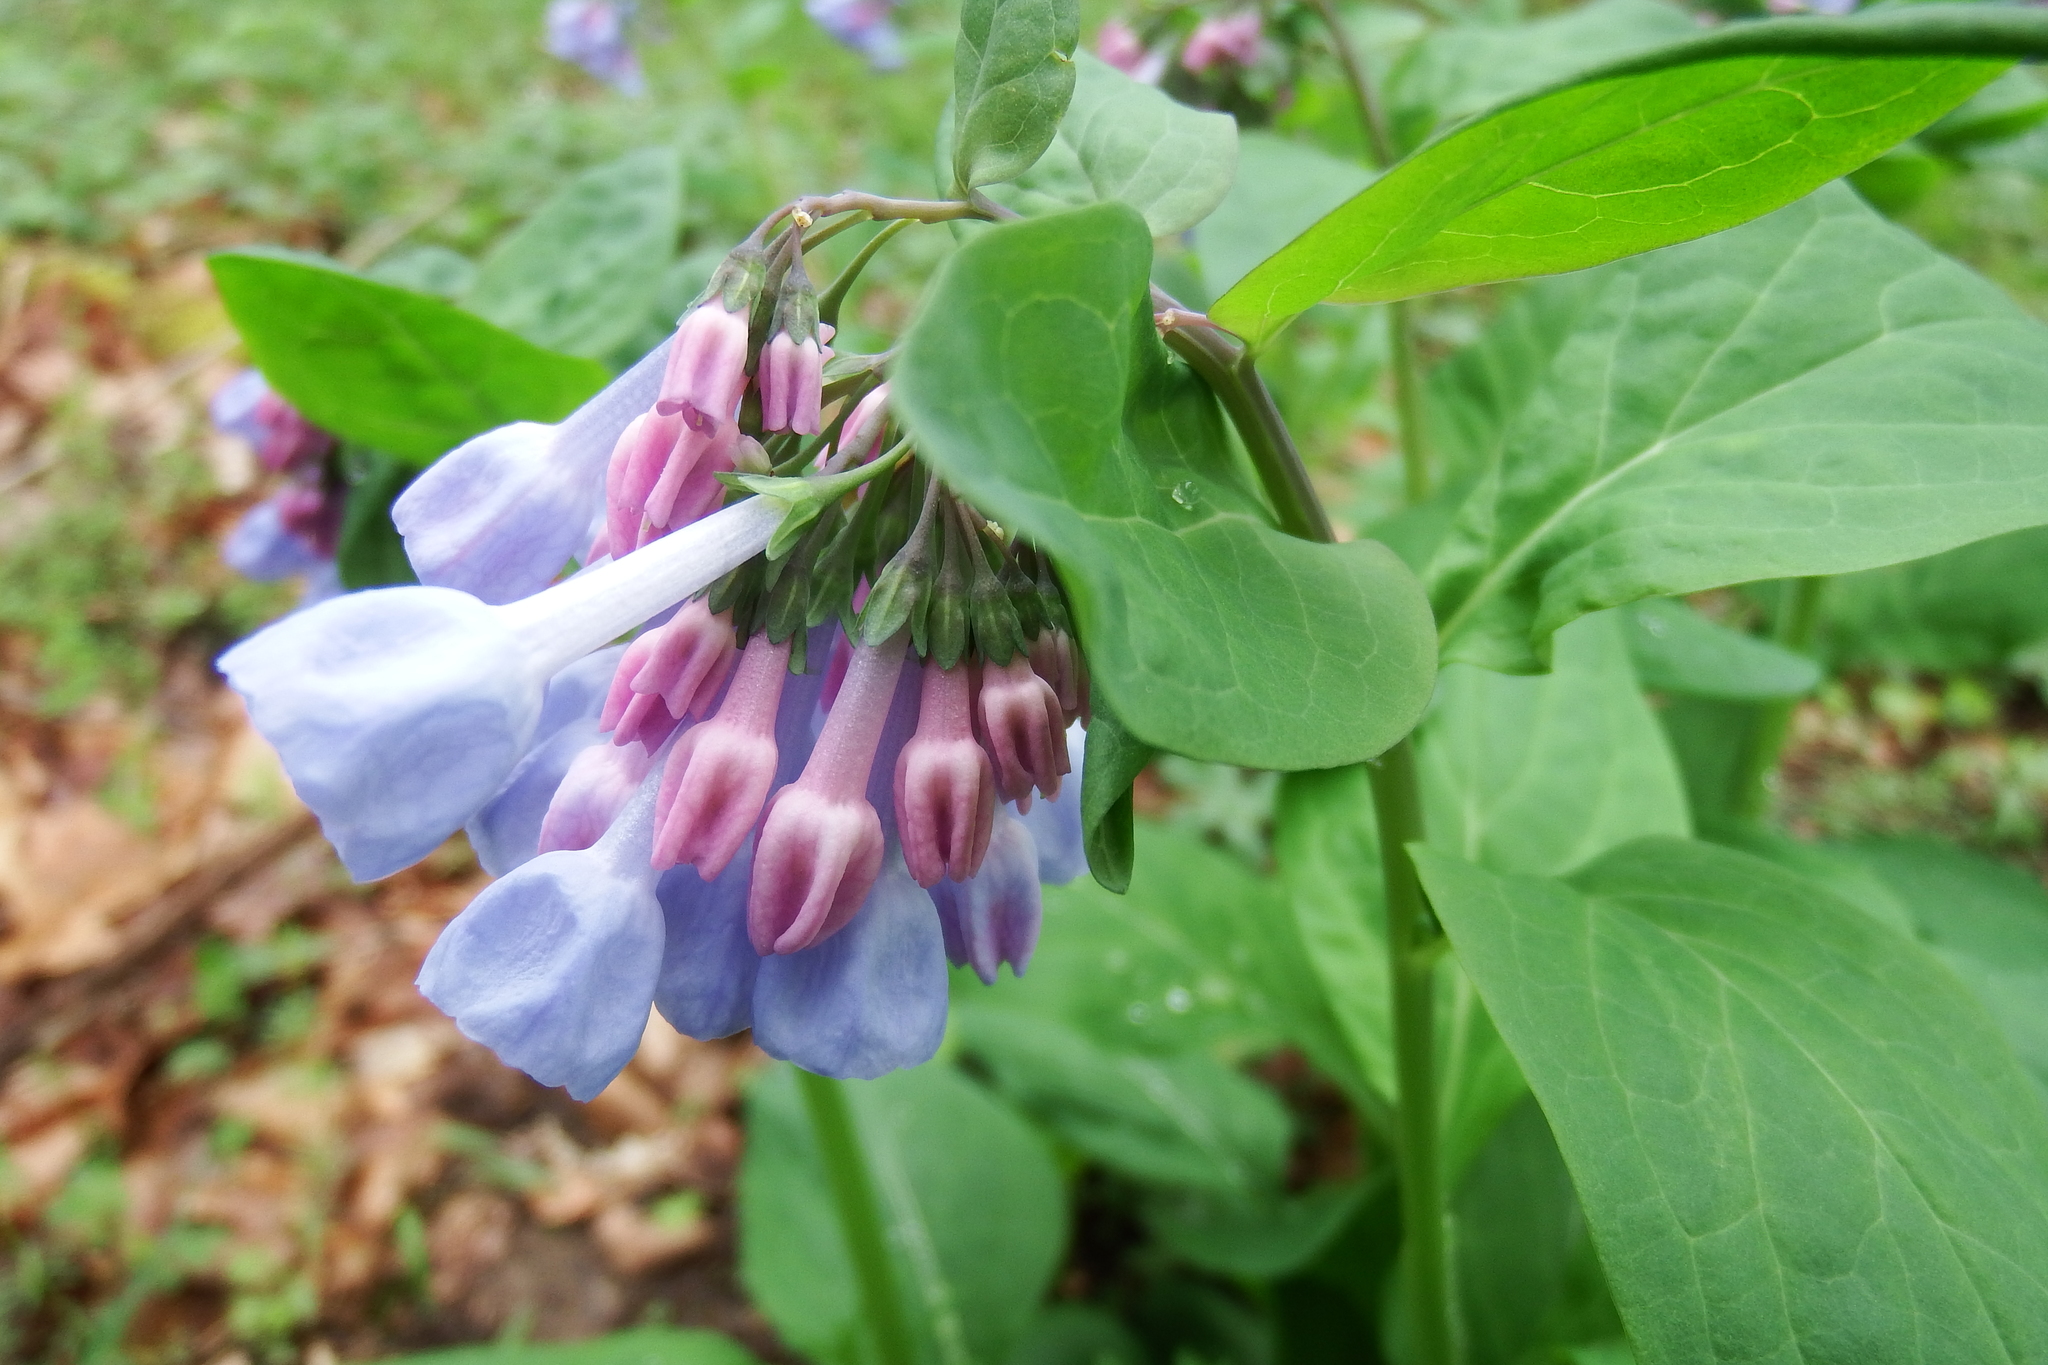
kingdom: Plantae
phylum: Tracheophyta
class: Magnoliopsida
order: Boraginales
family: Boraginaceae
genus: Mertensia
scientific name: Mertensia virginica
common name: Virginia bluebells
